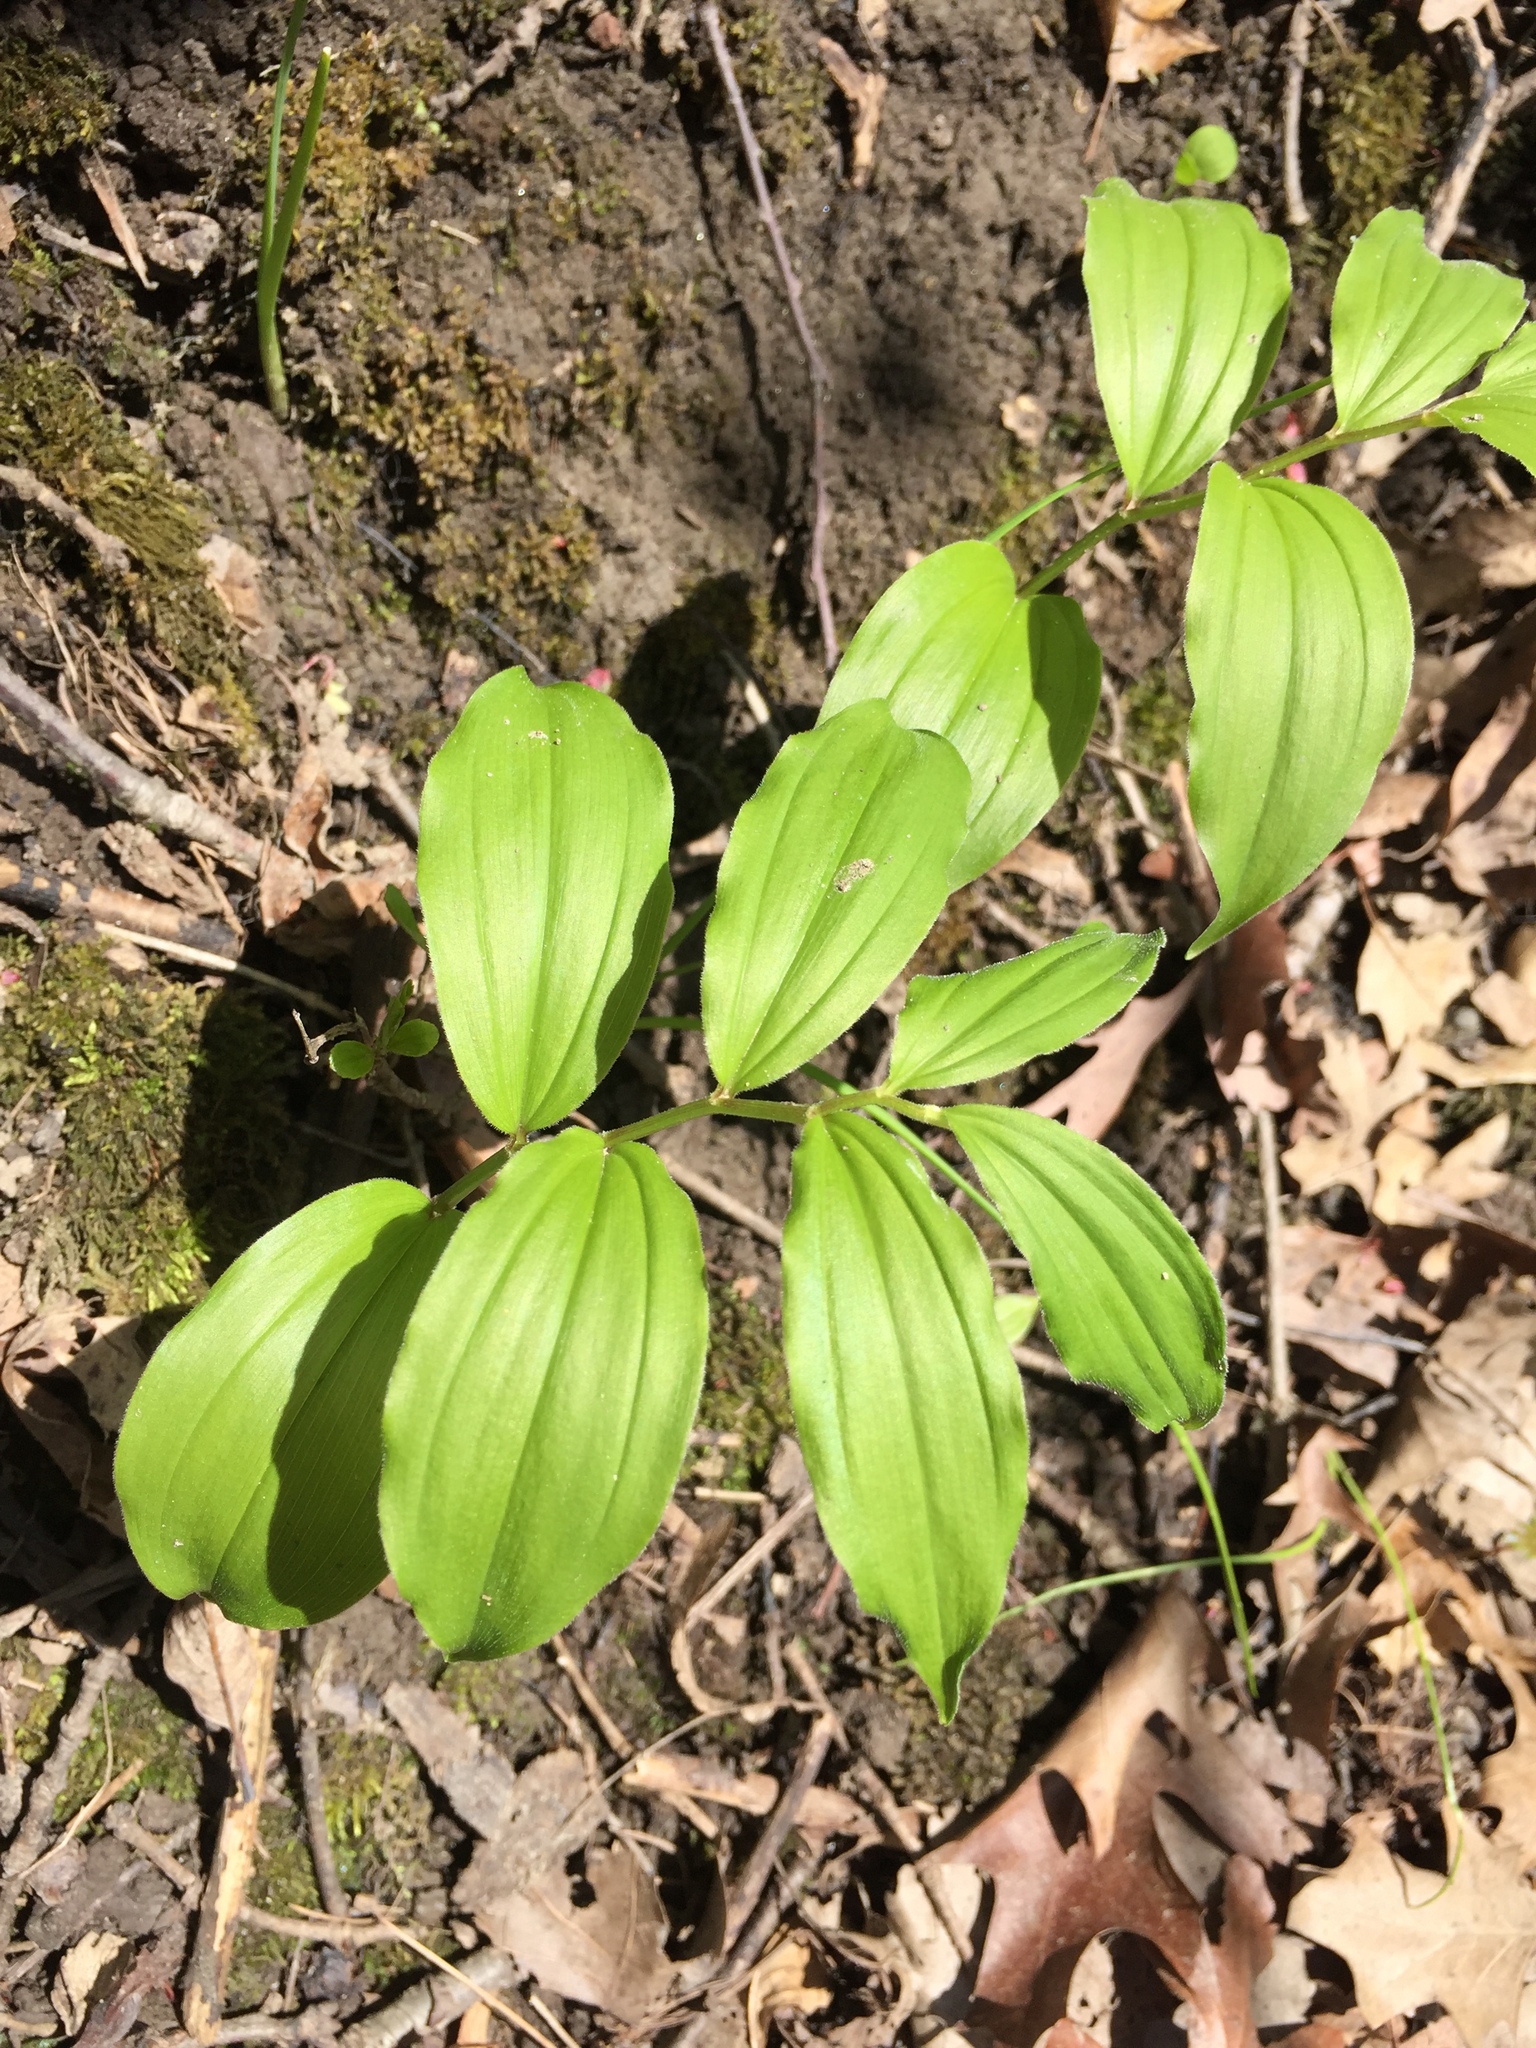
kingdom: Plantae
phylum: Tracheophyta
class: Liliopsida
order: Asparagales
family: Asparagaceae
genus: Maianthemum
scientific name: Maianthemum racemosum
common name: False spikenard
